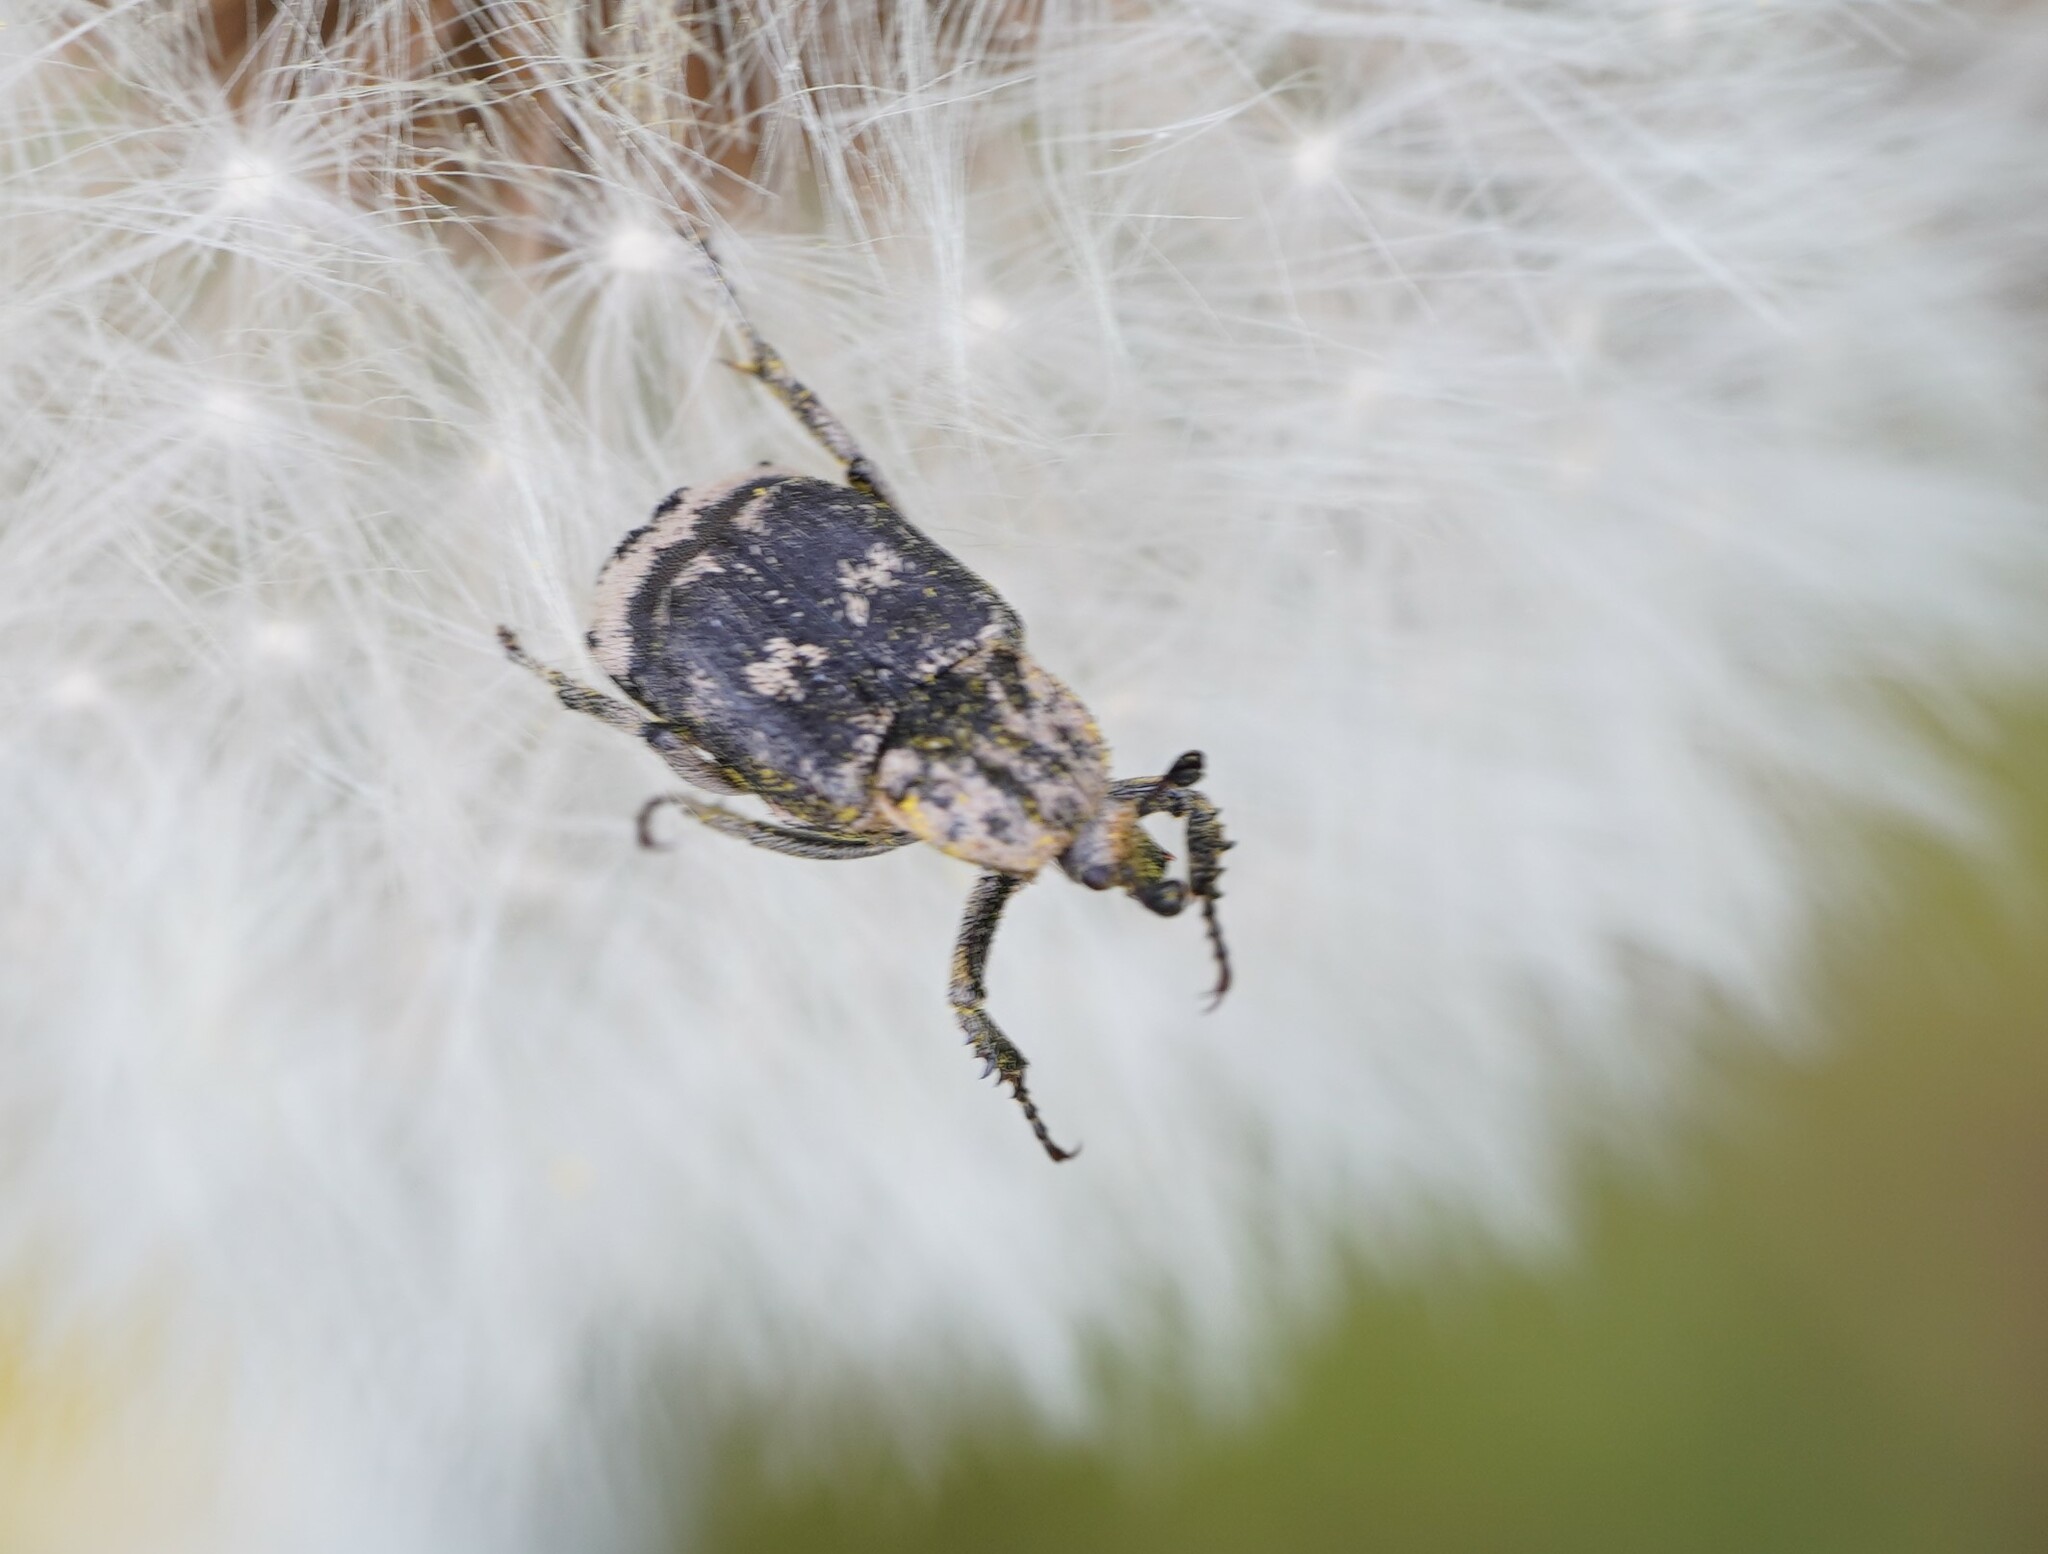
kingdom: Animalia
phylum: Arthropoda
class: Insecta
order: Coleoptera
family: Scarabaeidae
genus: Valgus
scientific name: Valgus hemipterus
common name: Bug flower chafer
